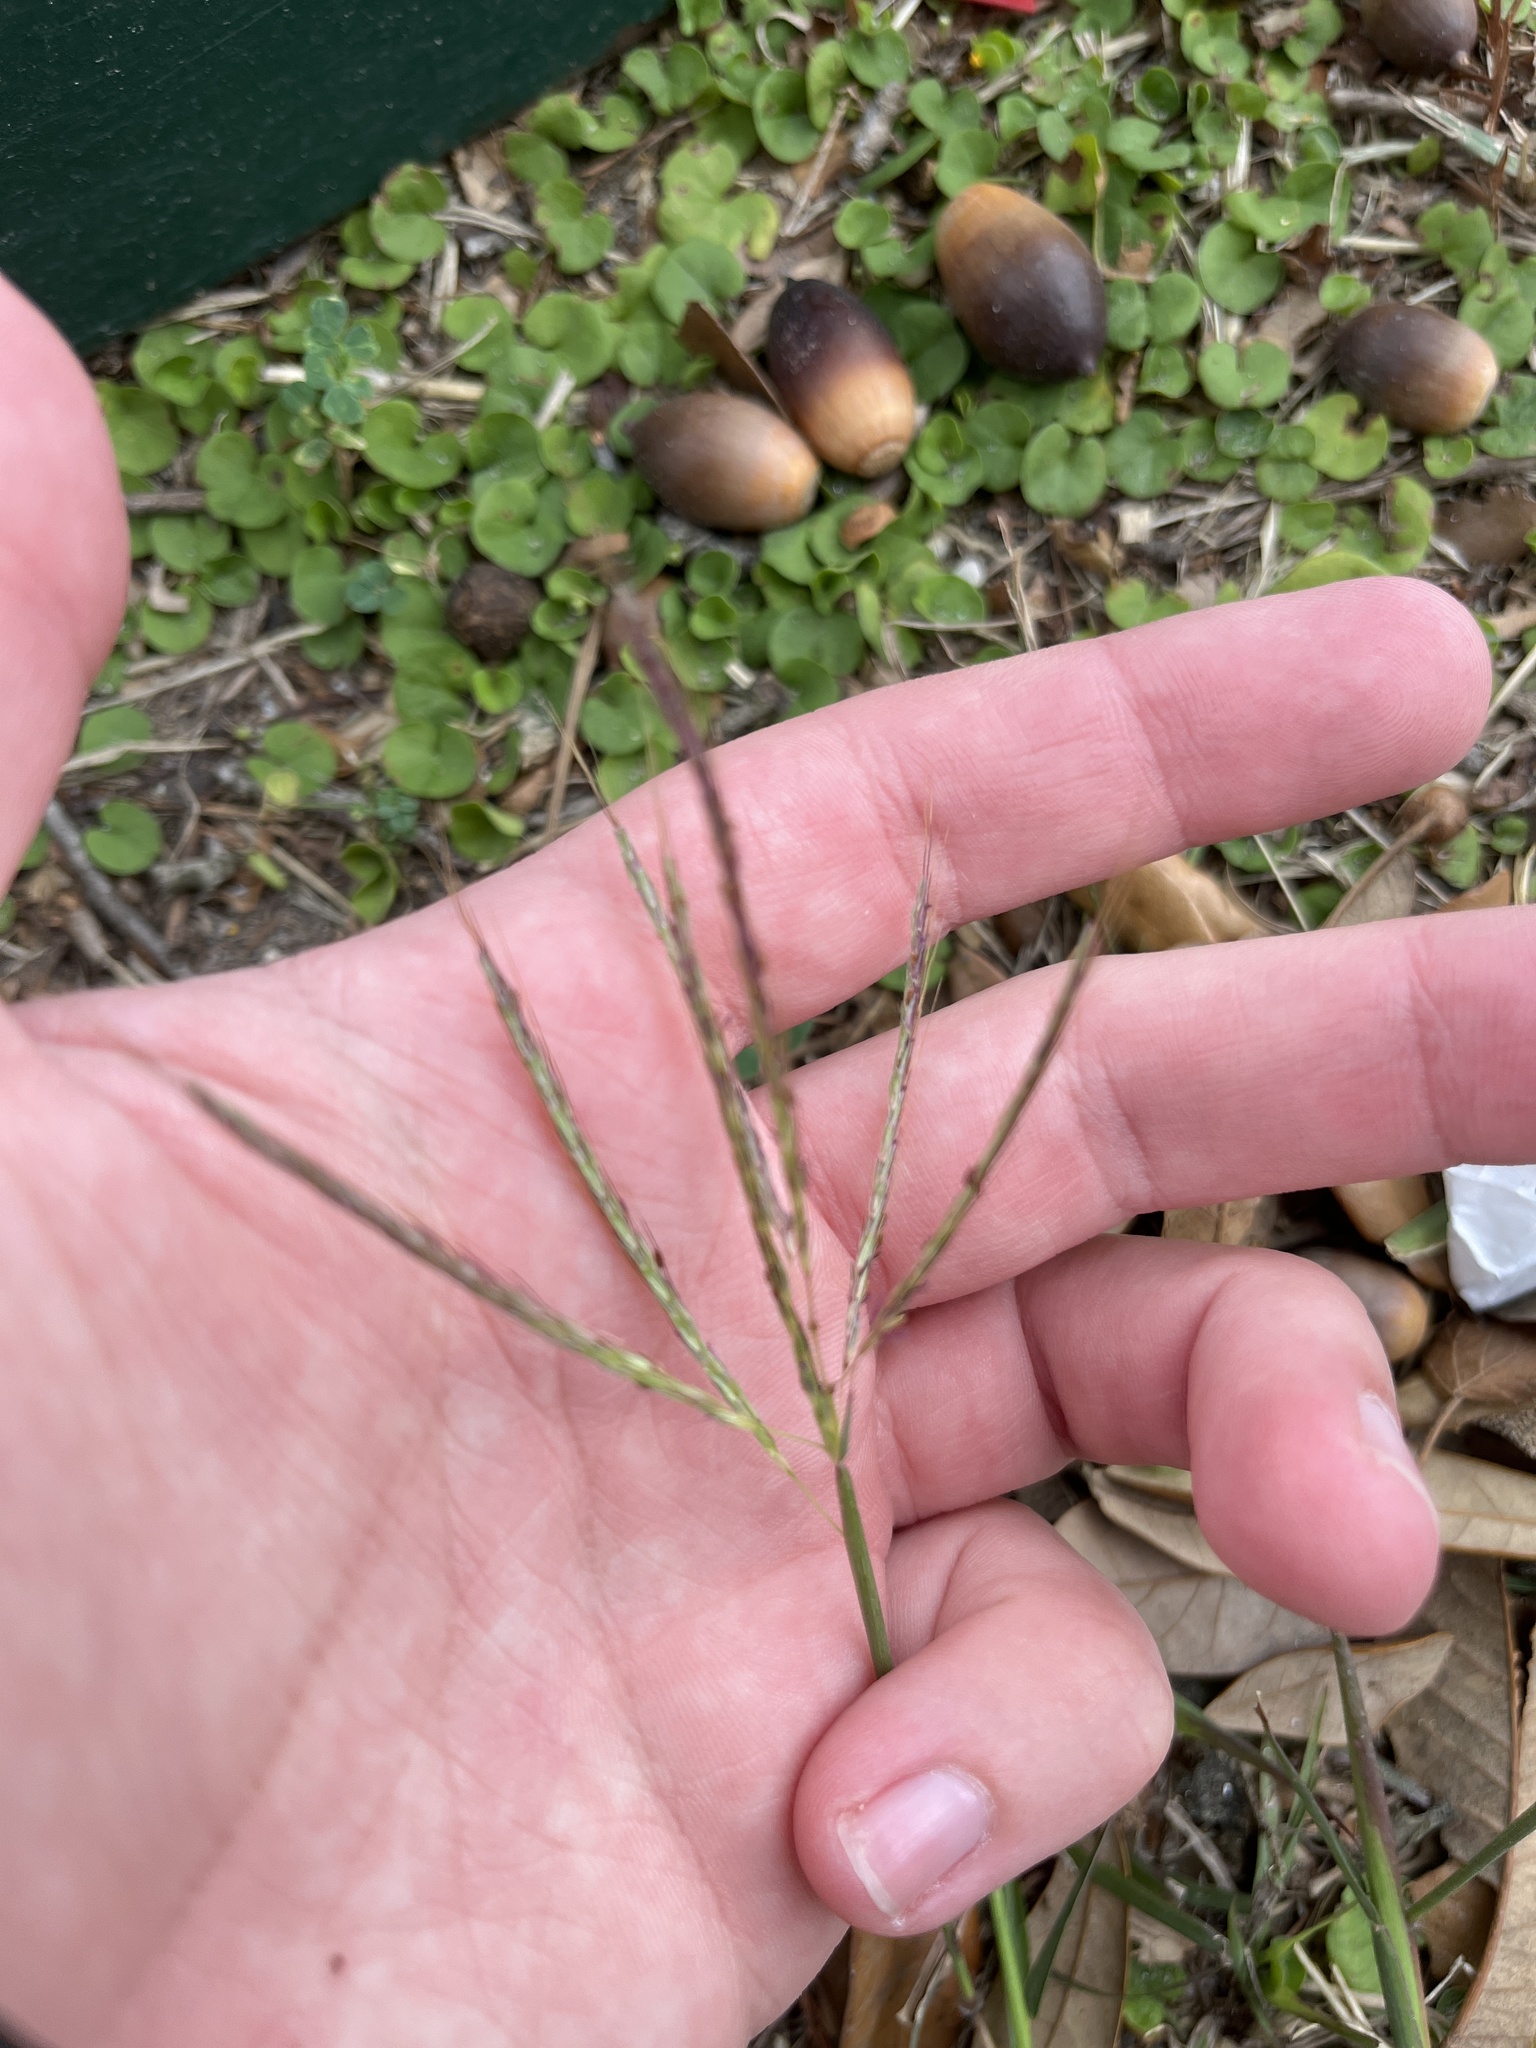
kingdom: Plantae
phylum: Tracheophyta
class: Liliopsida
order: Poales
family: Poaceae
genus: Bothriochloa
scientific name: Bothriochloa ischaemum
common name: Yellow bluestem
